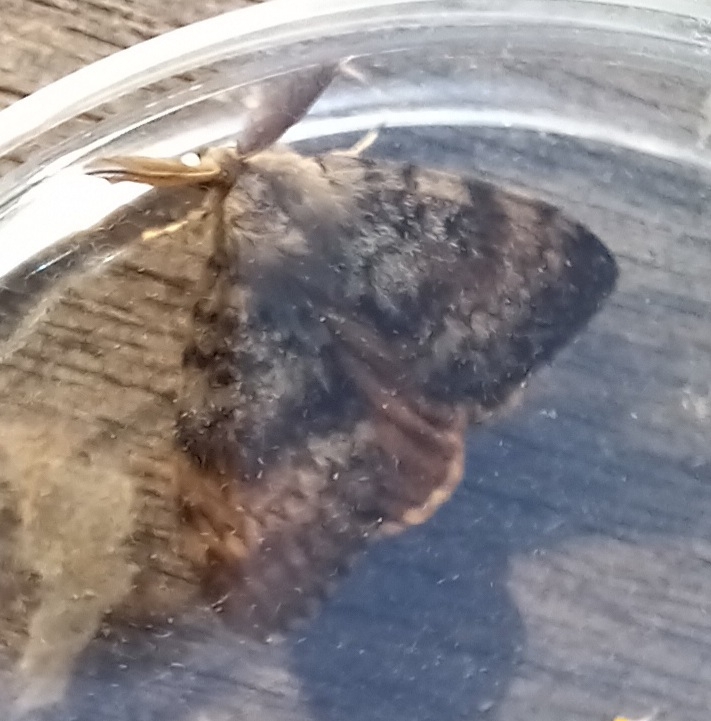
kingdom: Animalia
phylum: Arthropoda
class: Insecta
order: Lepidoptera
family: Erebidae
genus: Lymantria
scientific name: Lymantria dispar
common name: Gypsy moth
